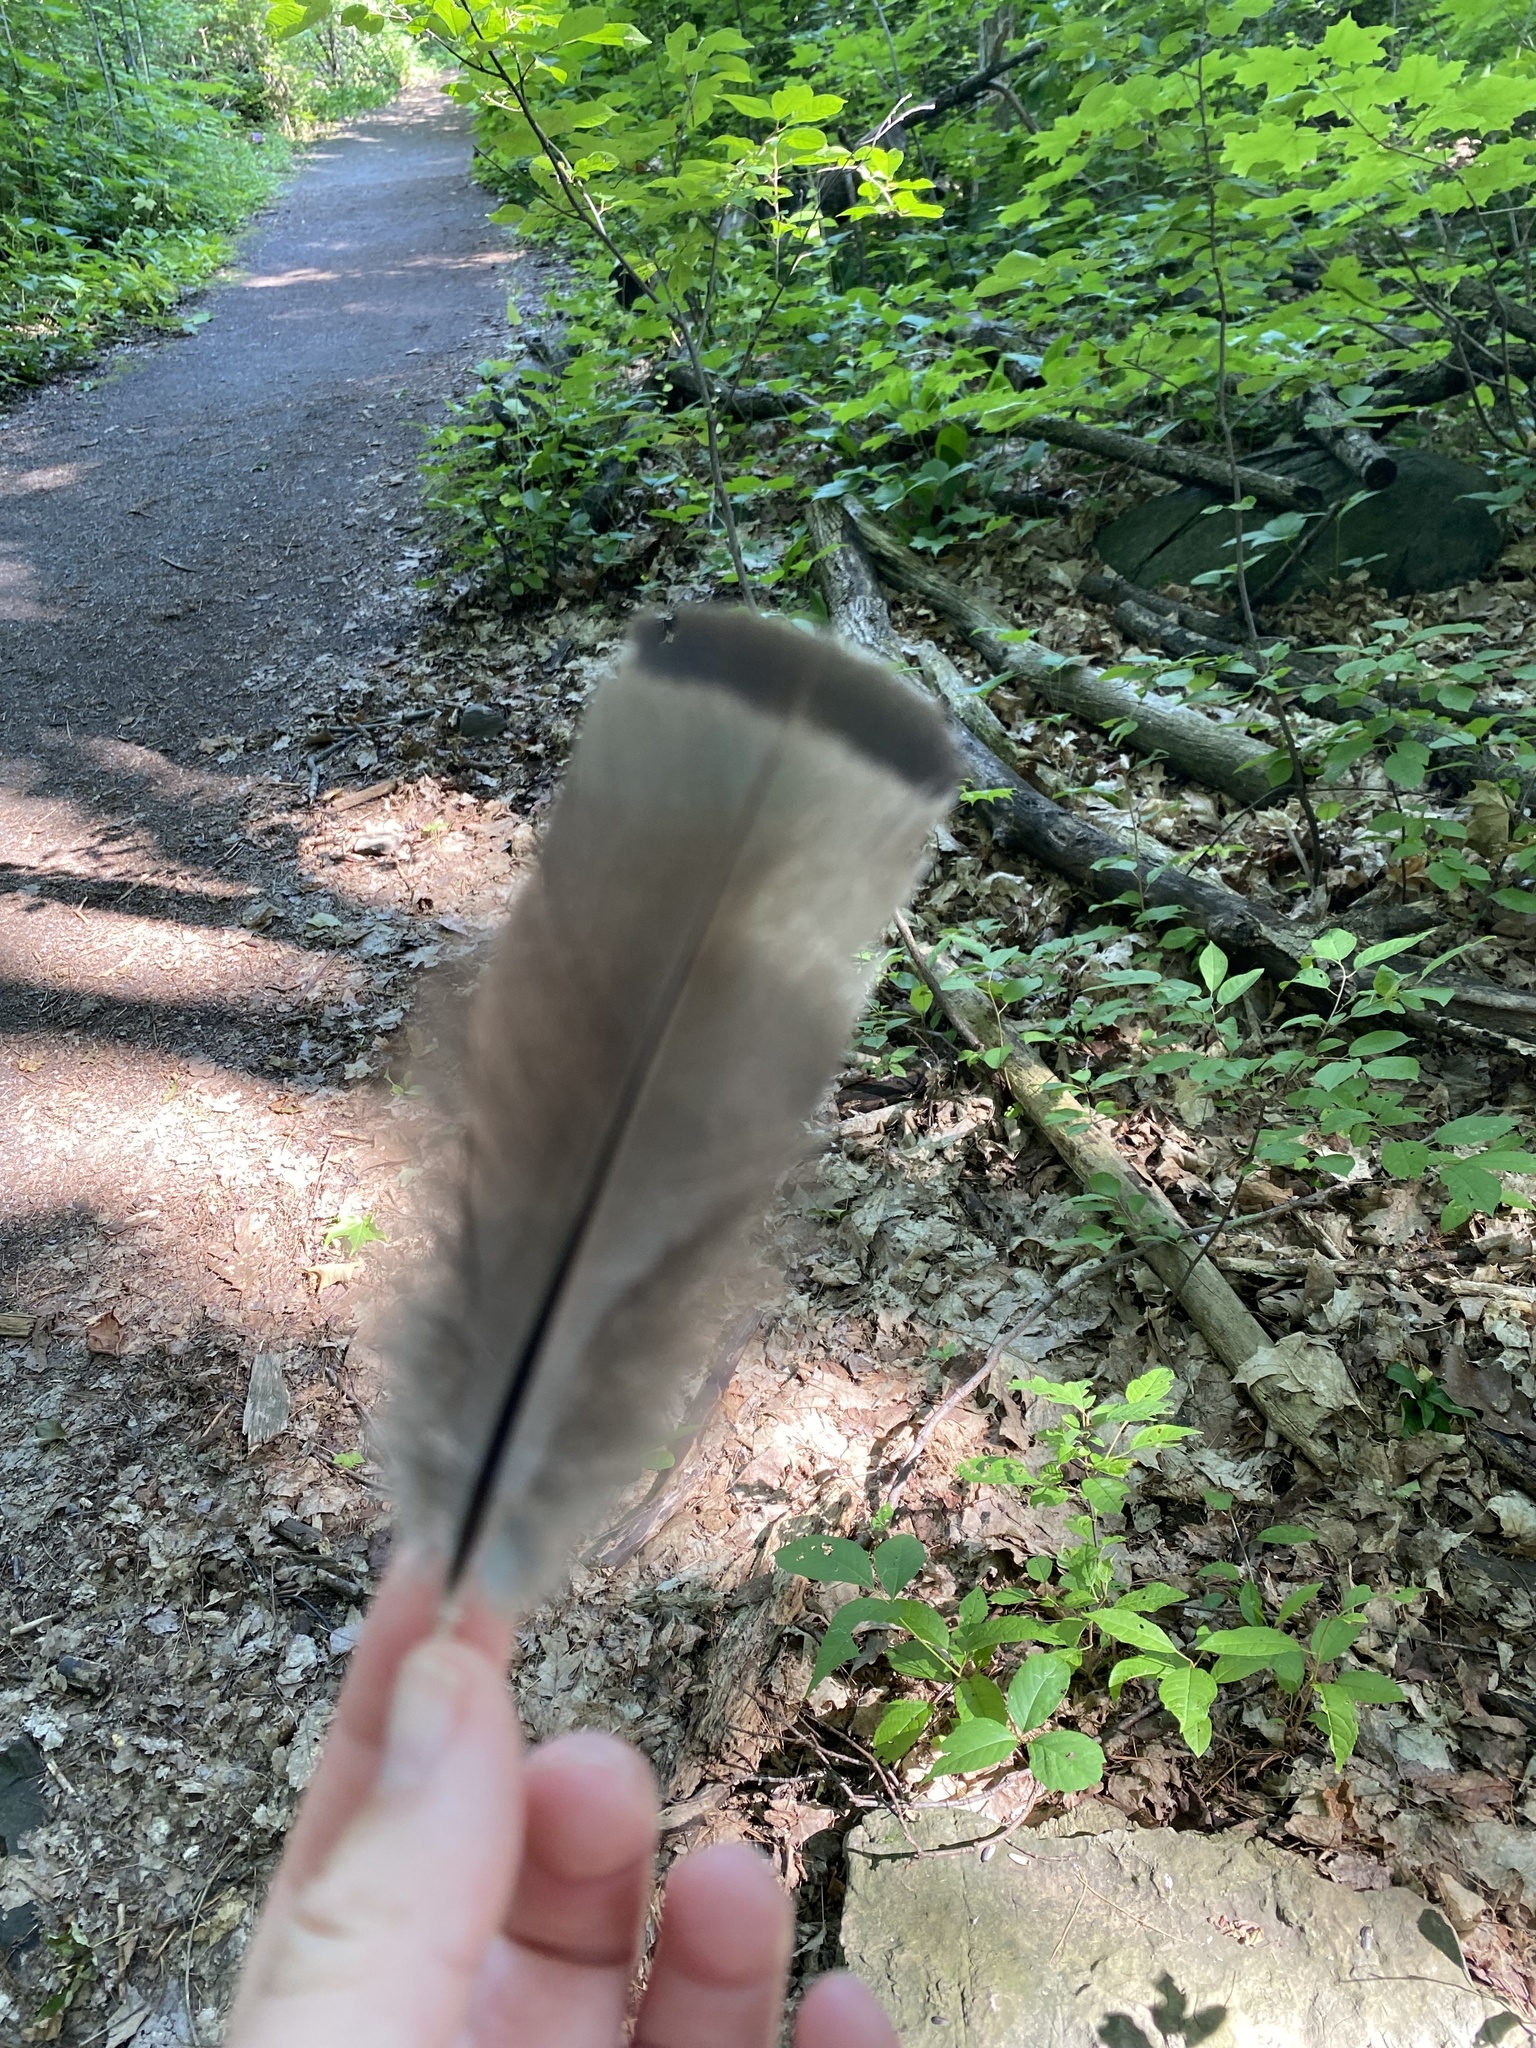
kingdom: Animalia
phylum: Chordata
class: Aves
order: Galliformes
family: Phasianidae
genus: Meleagris
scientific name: Meleagris gallopavo
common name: Wild turkey
